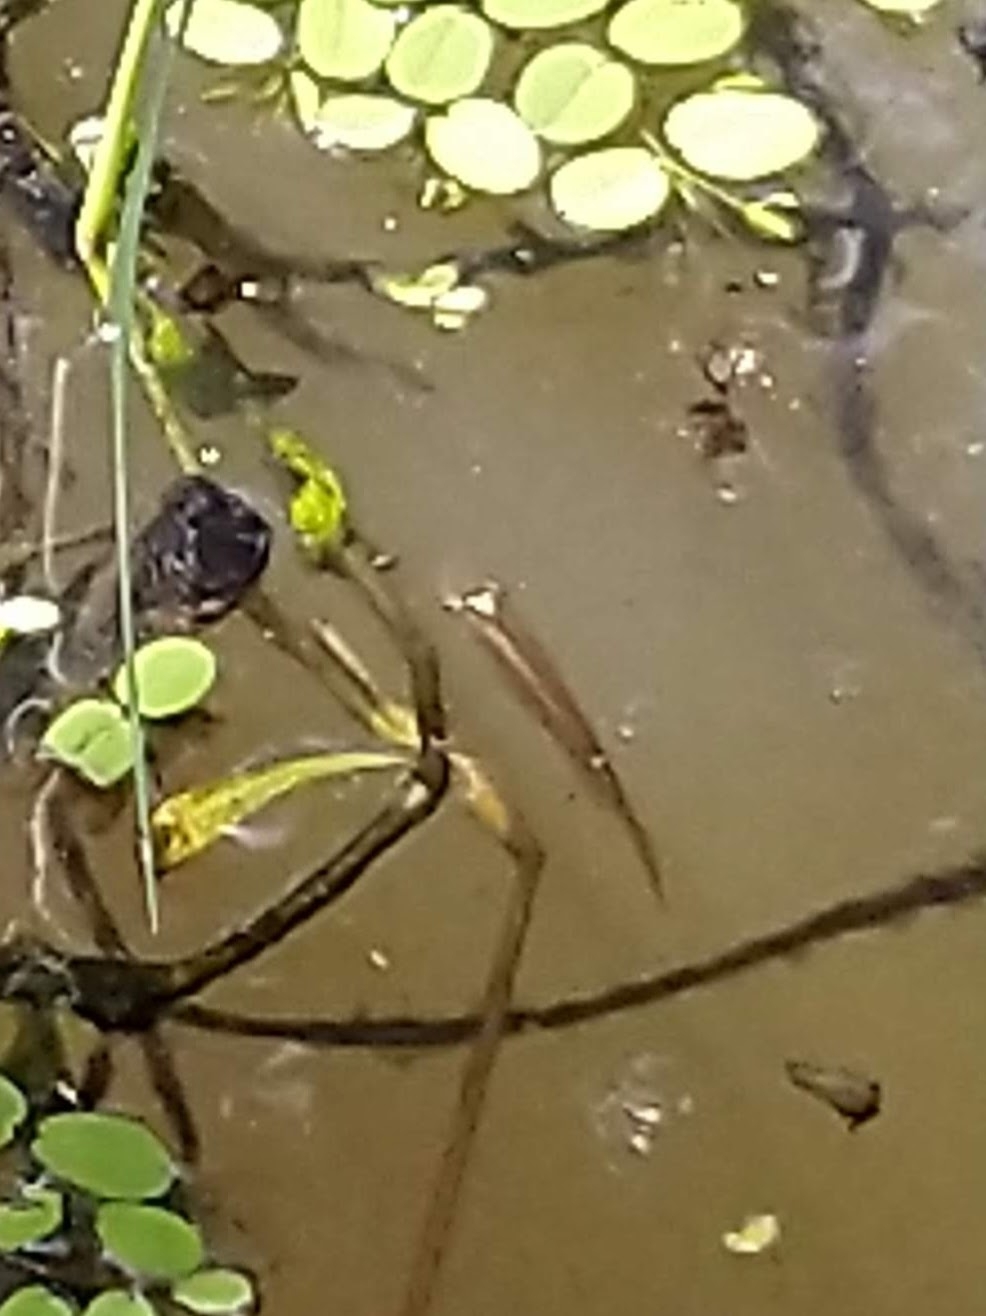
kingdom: Animalia
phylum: Chordata
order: Cyprinodontiformes
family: Aplocheilidae
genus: Aplocheilus
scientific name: Aplocheilus lineatus
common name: Striped panchax
